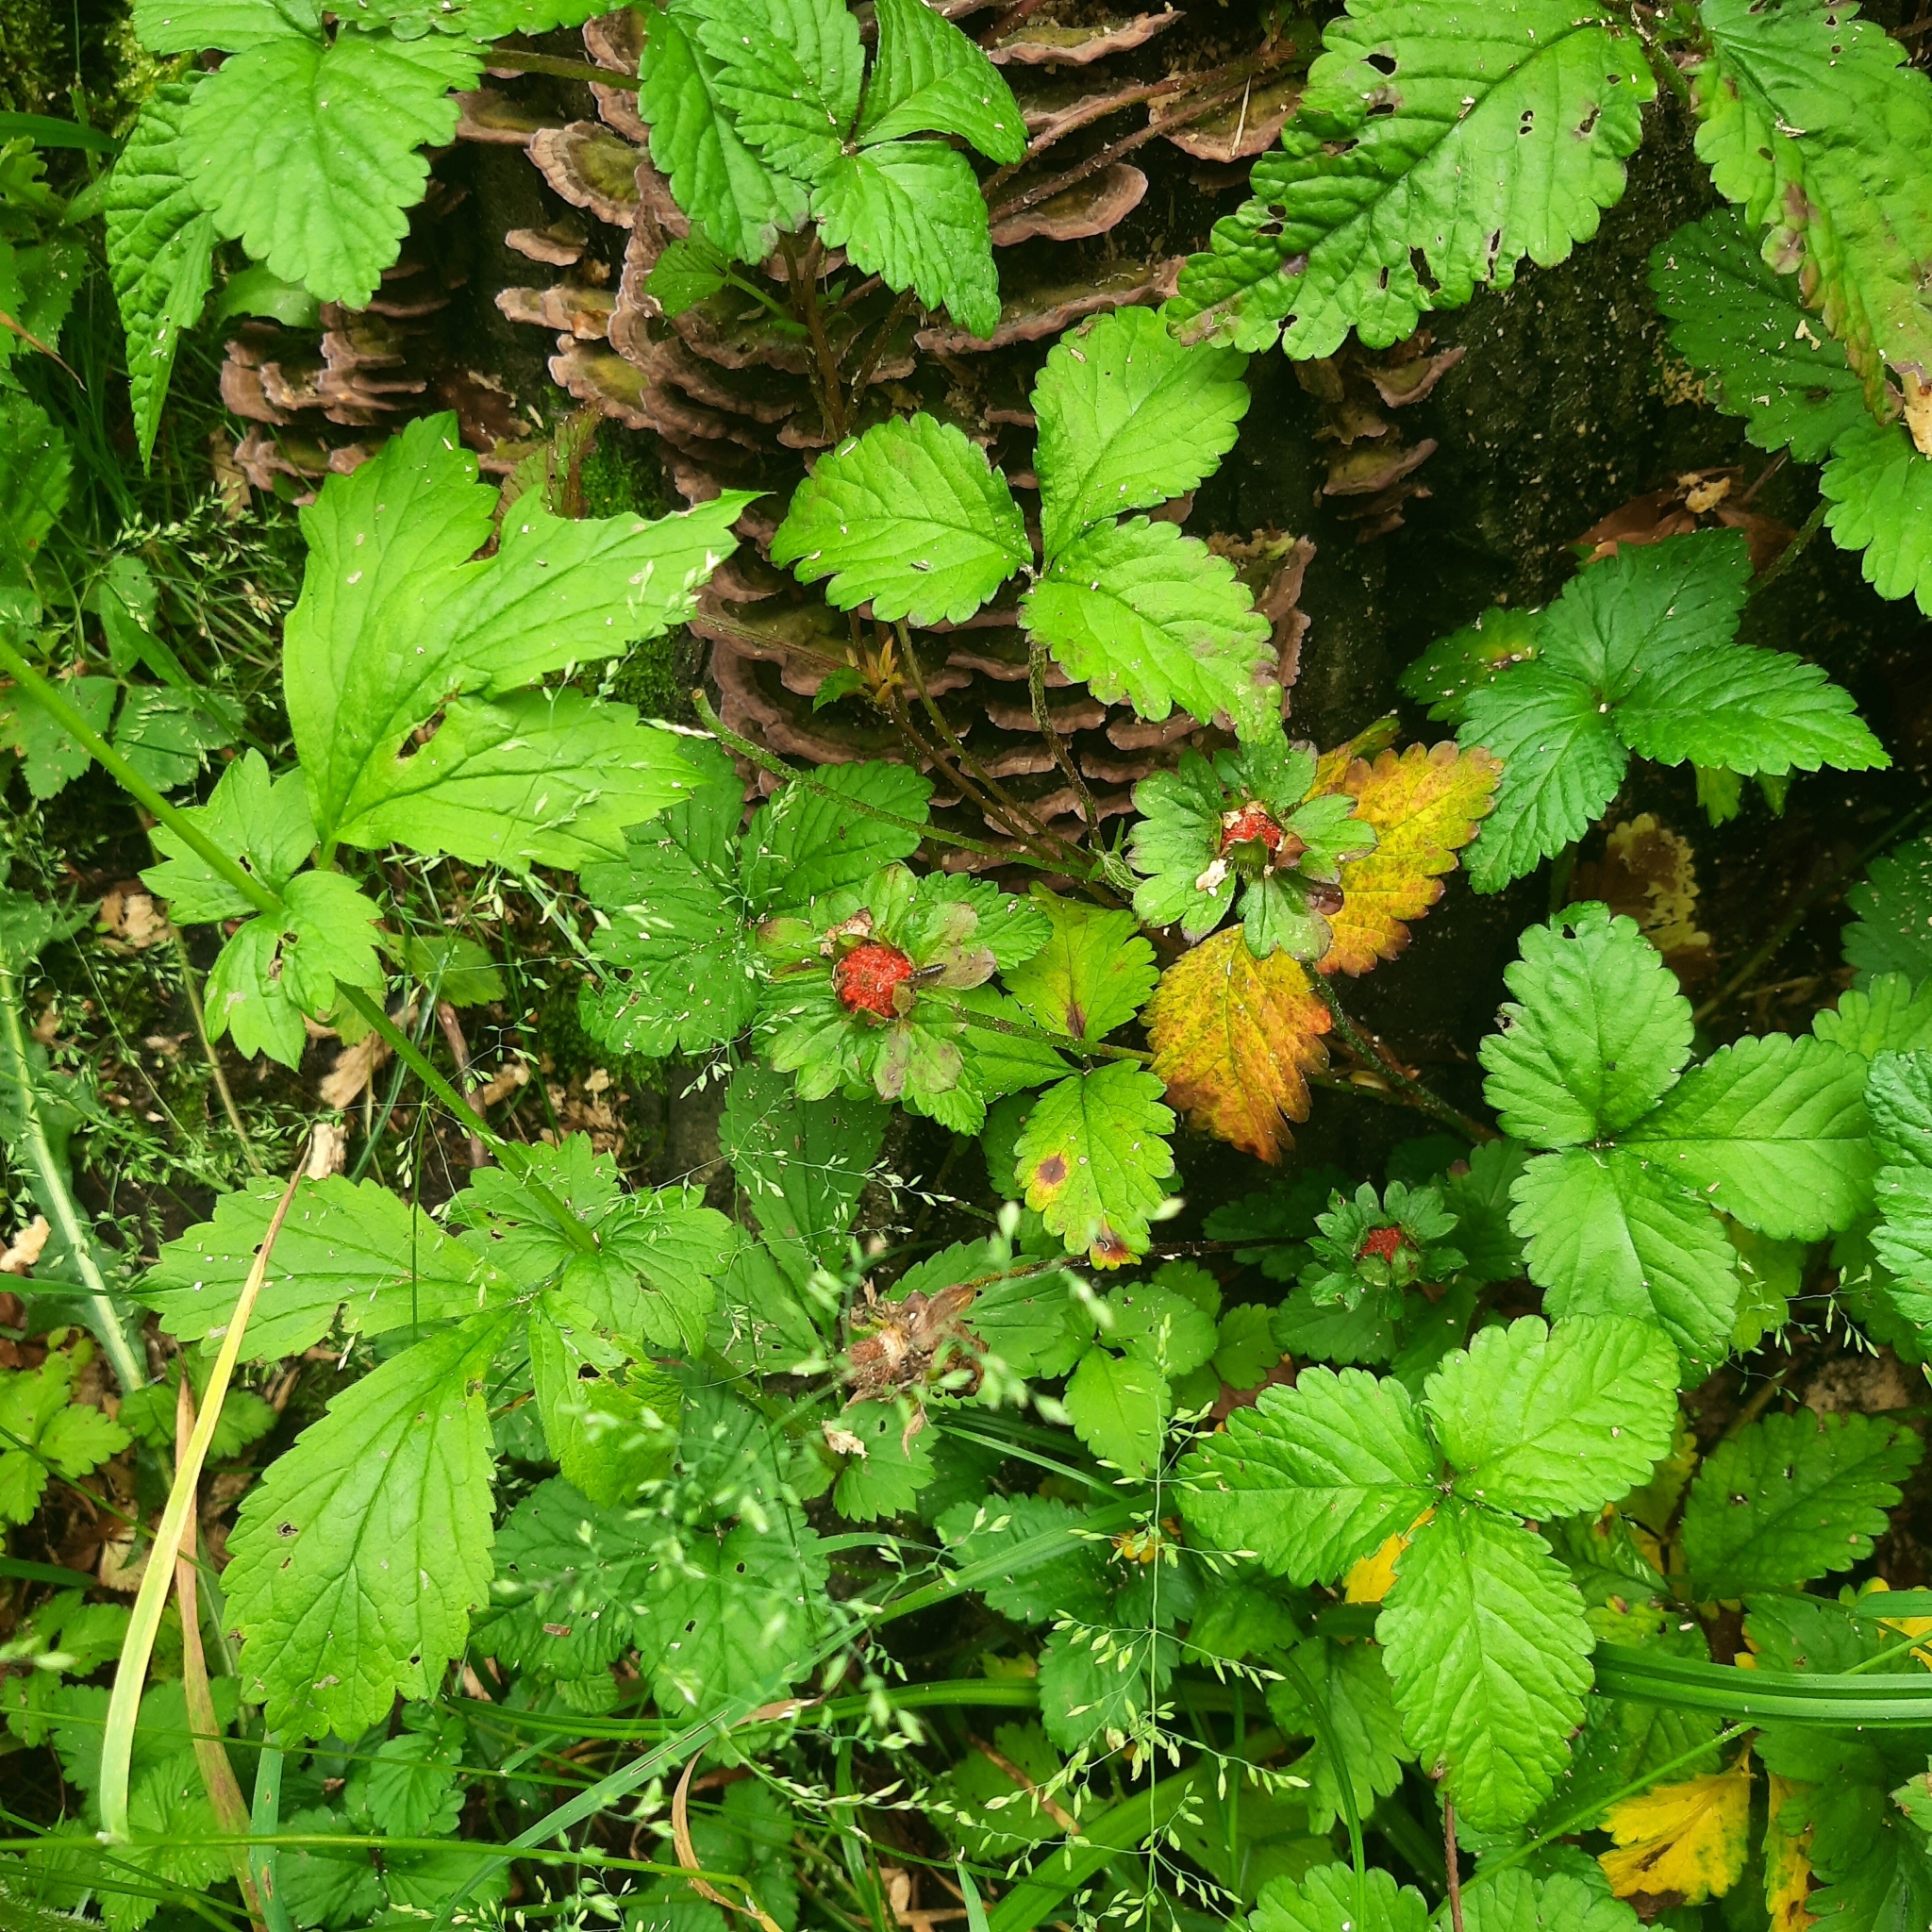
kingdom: Plantae
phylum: Tracheophyta
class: Magnoliopsida
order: Rosales
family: Rosaceae
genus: Potentilla
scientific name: Potentilla indica
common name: Yellow-flowered strawberry
